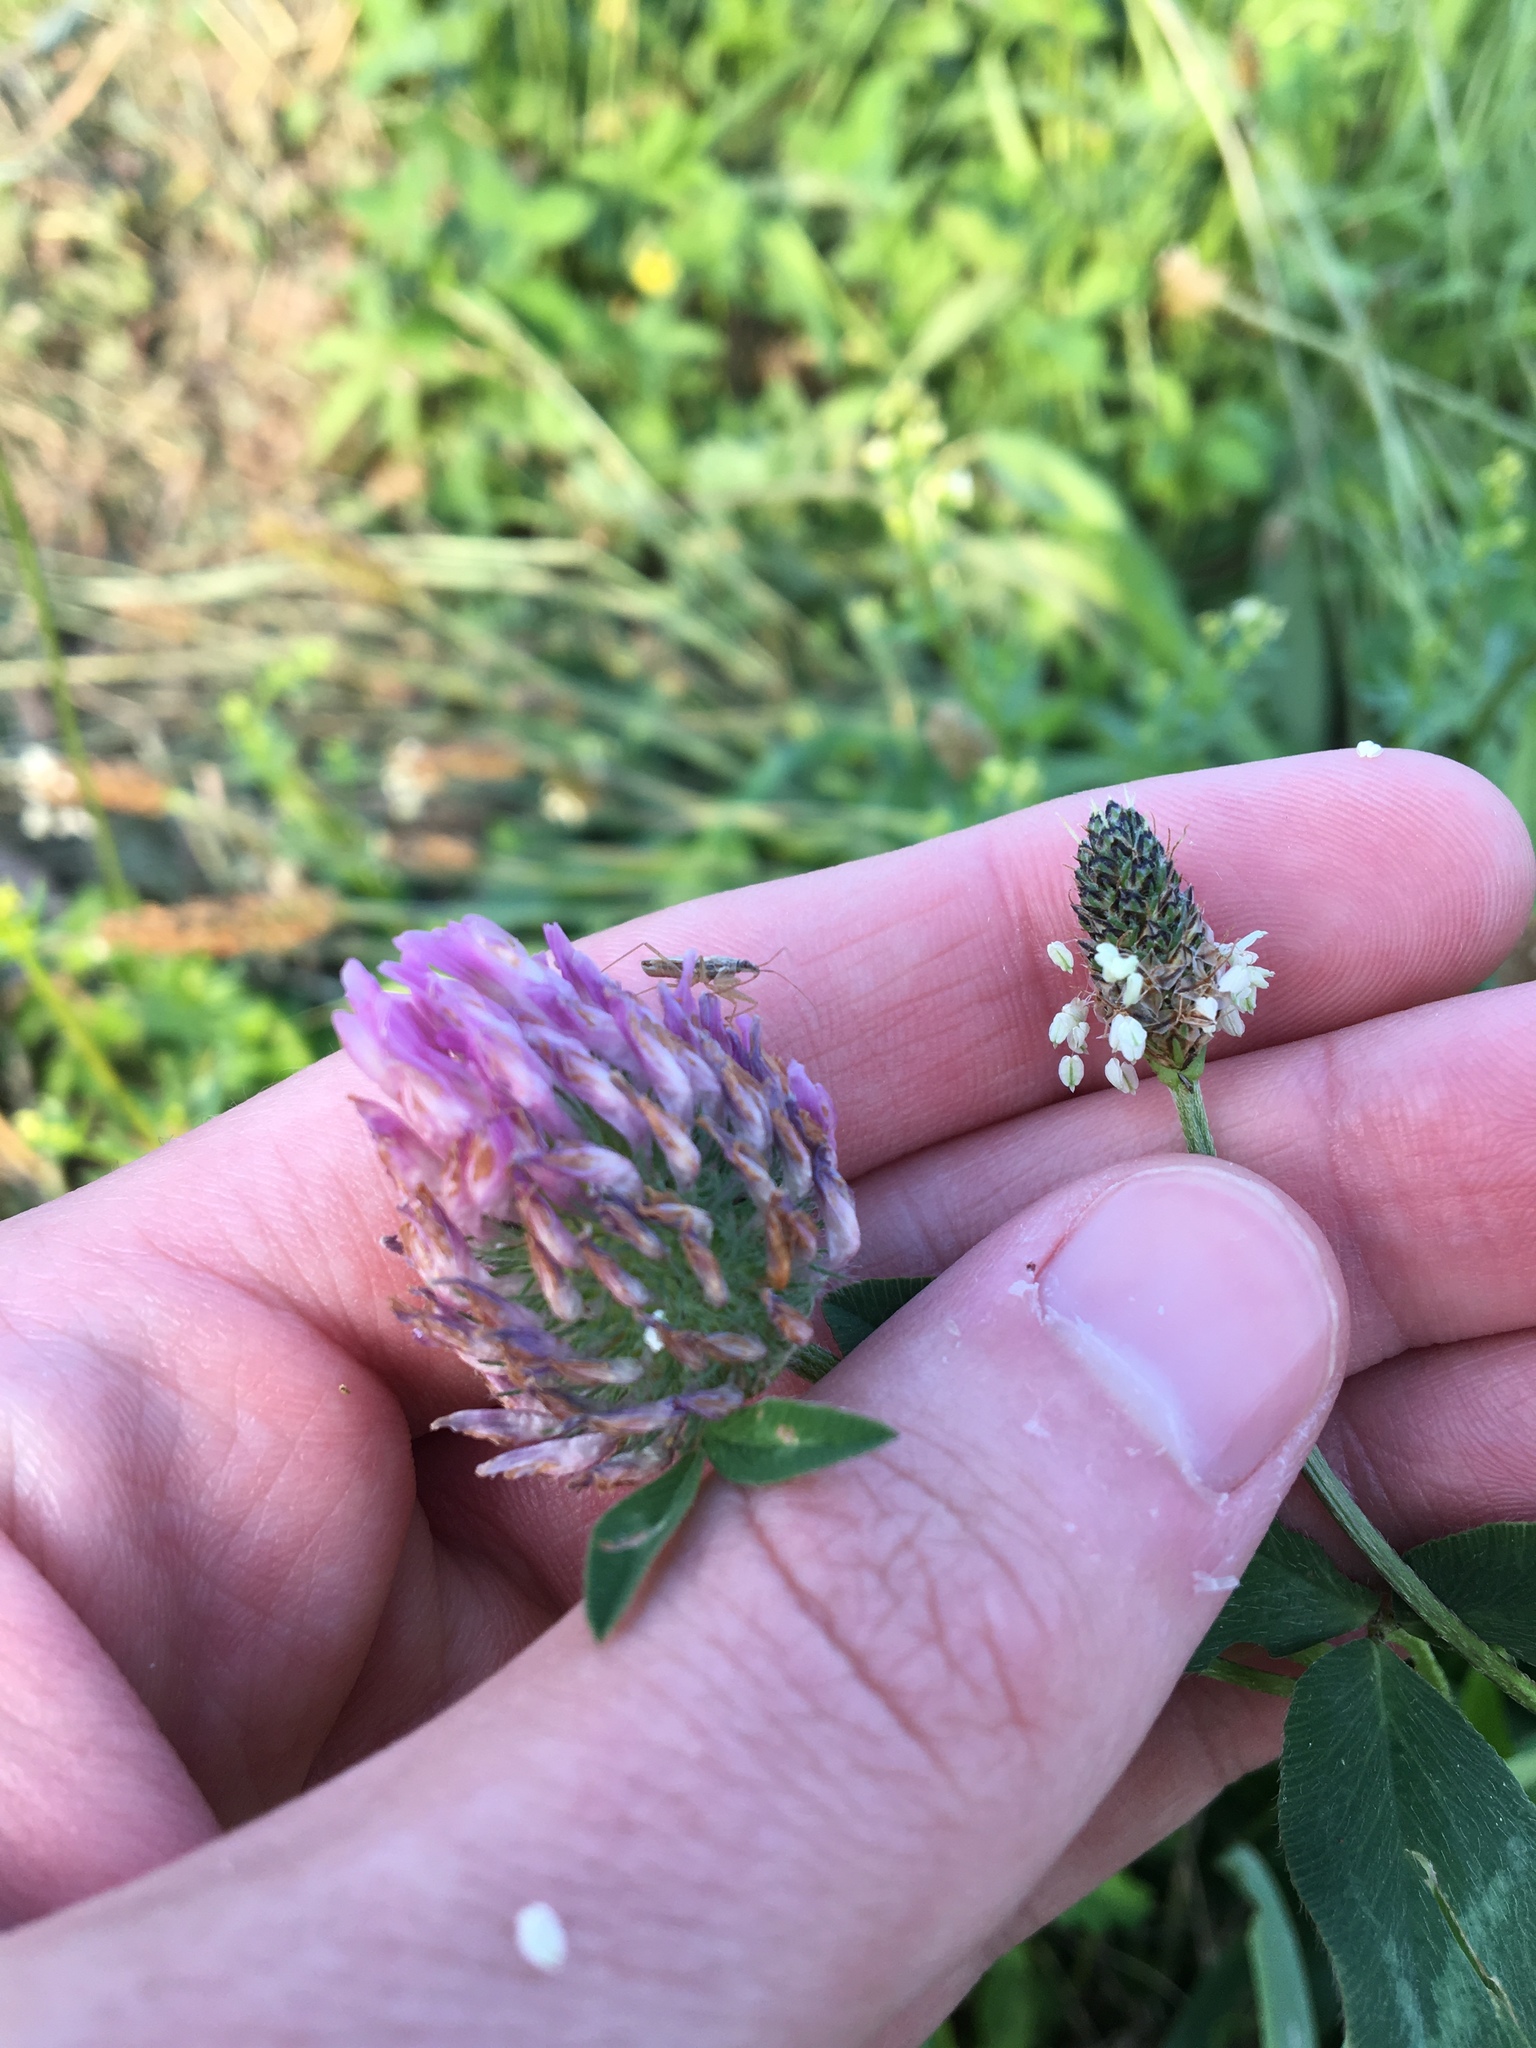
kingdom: Plantae
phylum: Tracheophyta
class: Magnoliopsida
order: Fabales
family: Fabaceae
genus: Trifolium
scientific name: Trifolium pratense
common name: Red clover
